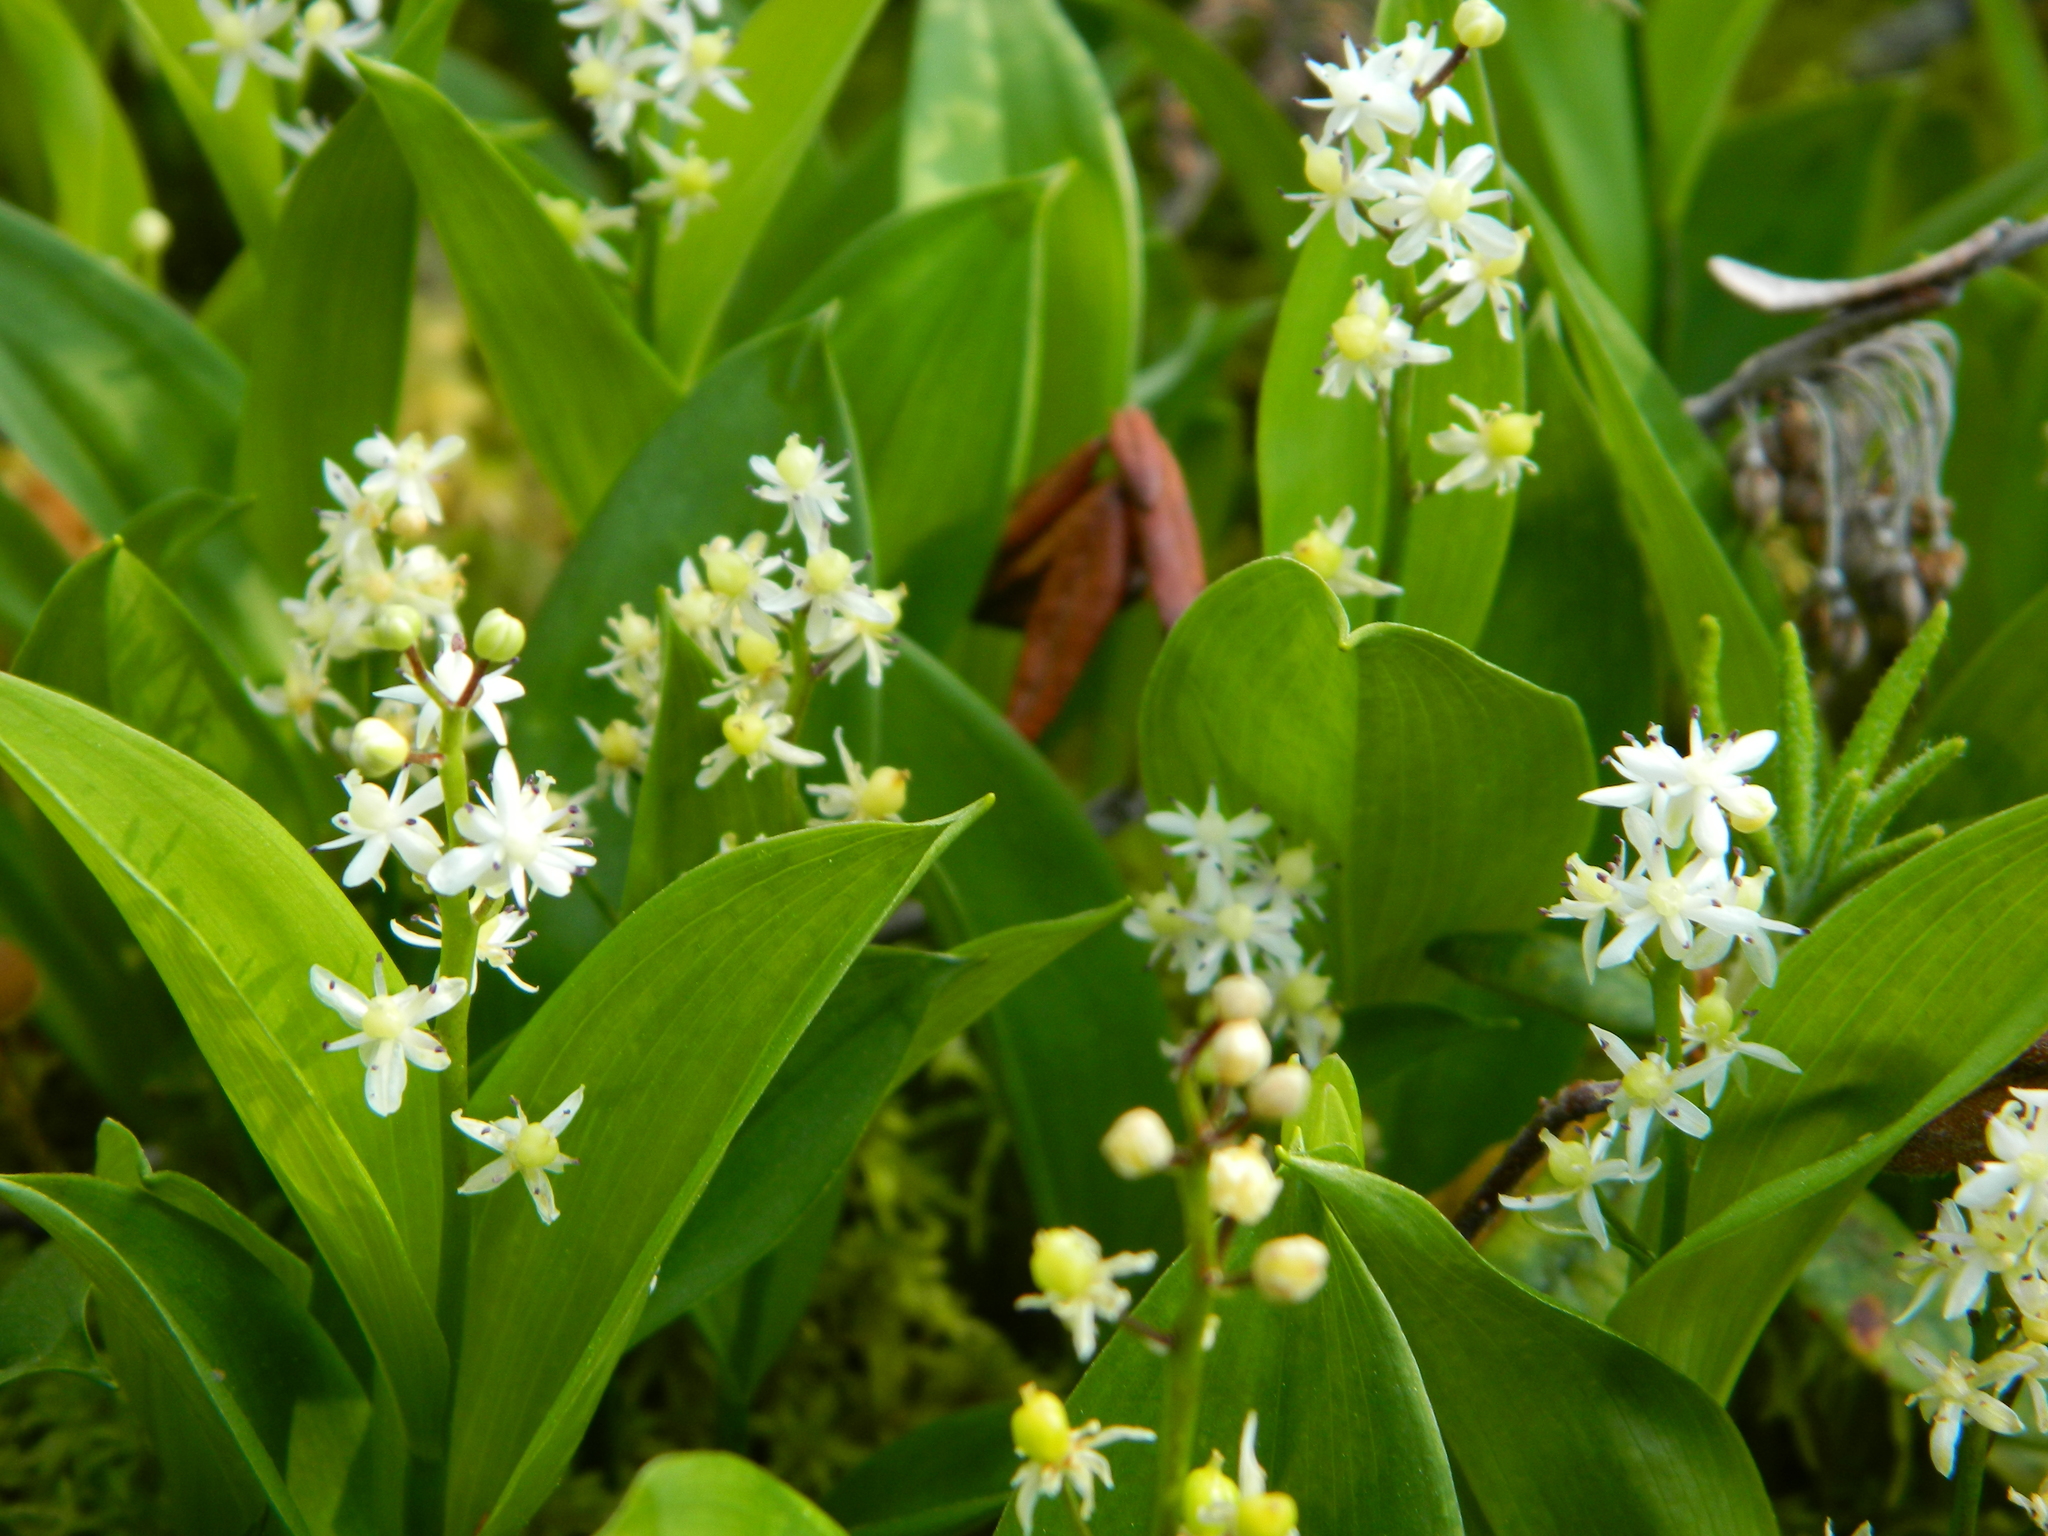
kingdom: Plantae
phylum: Tracheophyta
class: Liliopsida
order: Asparagales
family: Asparagaceae
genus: Maianthemum
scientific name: Maianthemum trifolium
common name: Swamp false solomon's seal
